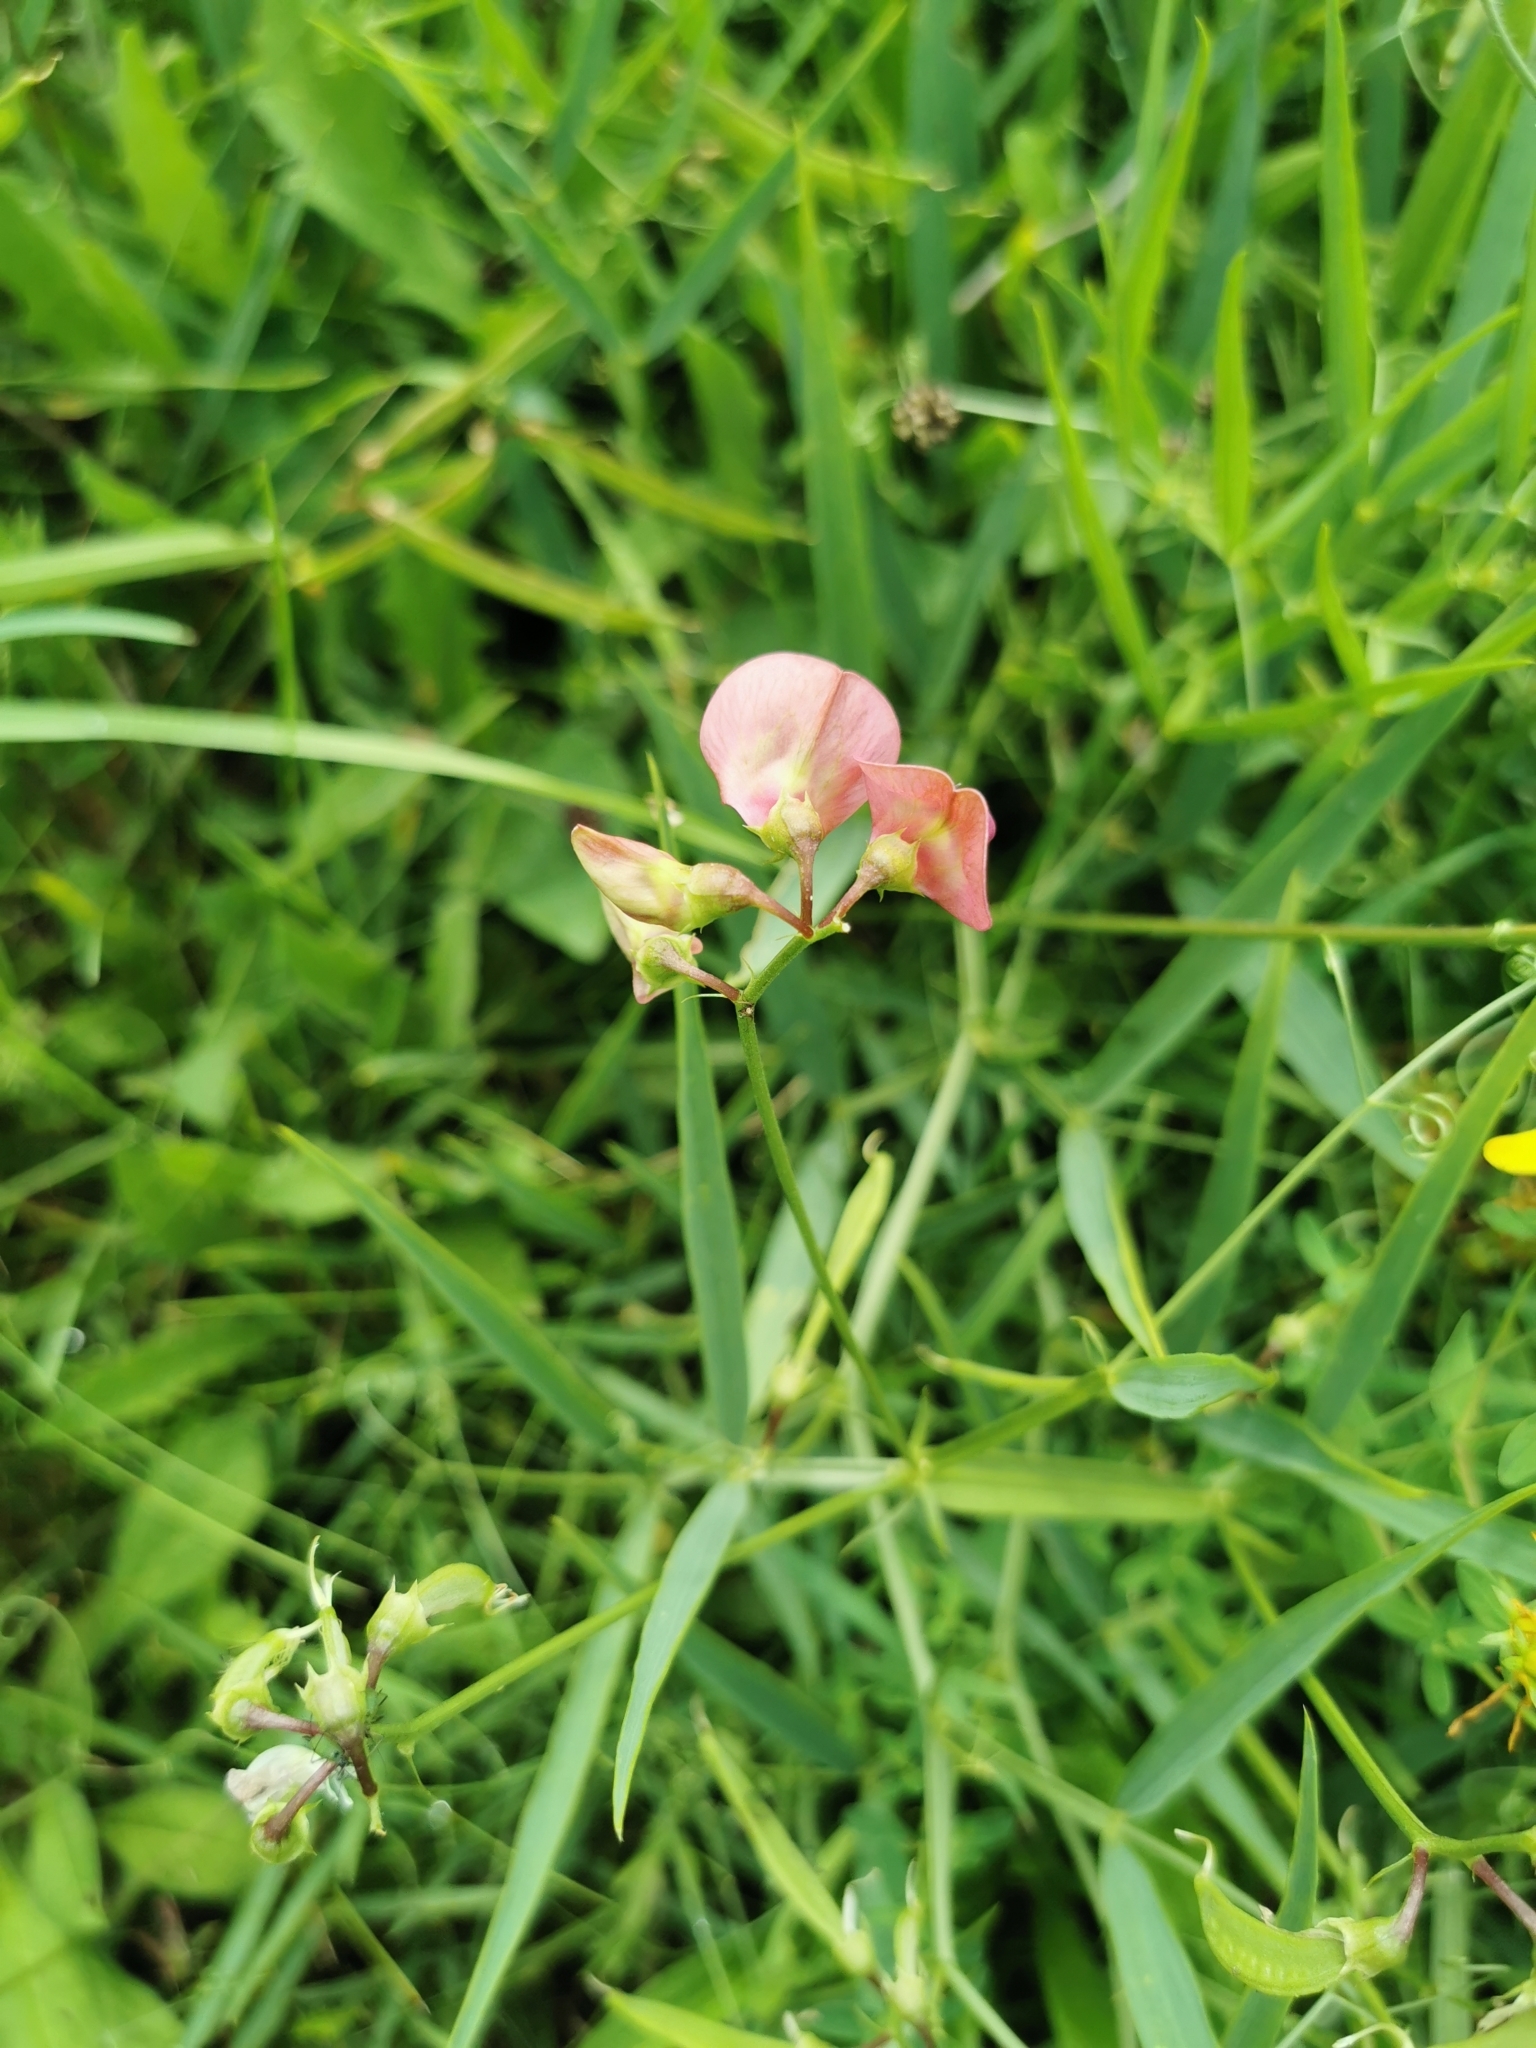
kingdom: Plantae
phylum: Tracheophyta
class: Magnoliopsida
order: Fabales
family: Fabaceae
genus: Lathyrus
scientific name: Lathyrus sylvestris
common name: Flat pea
